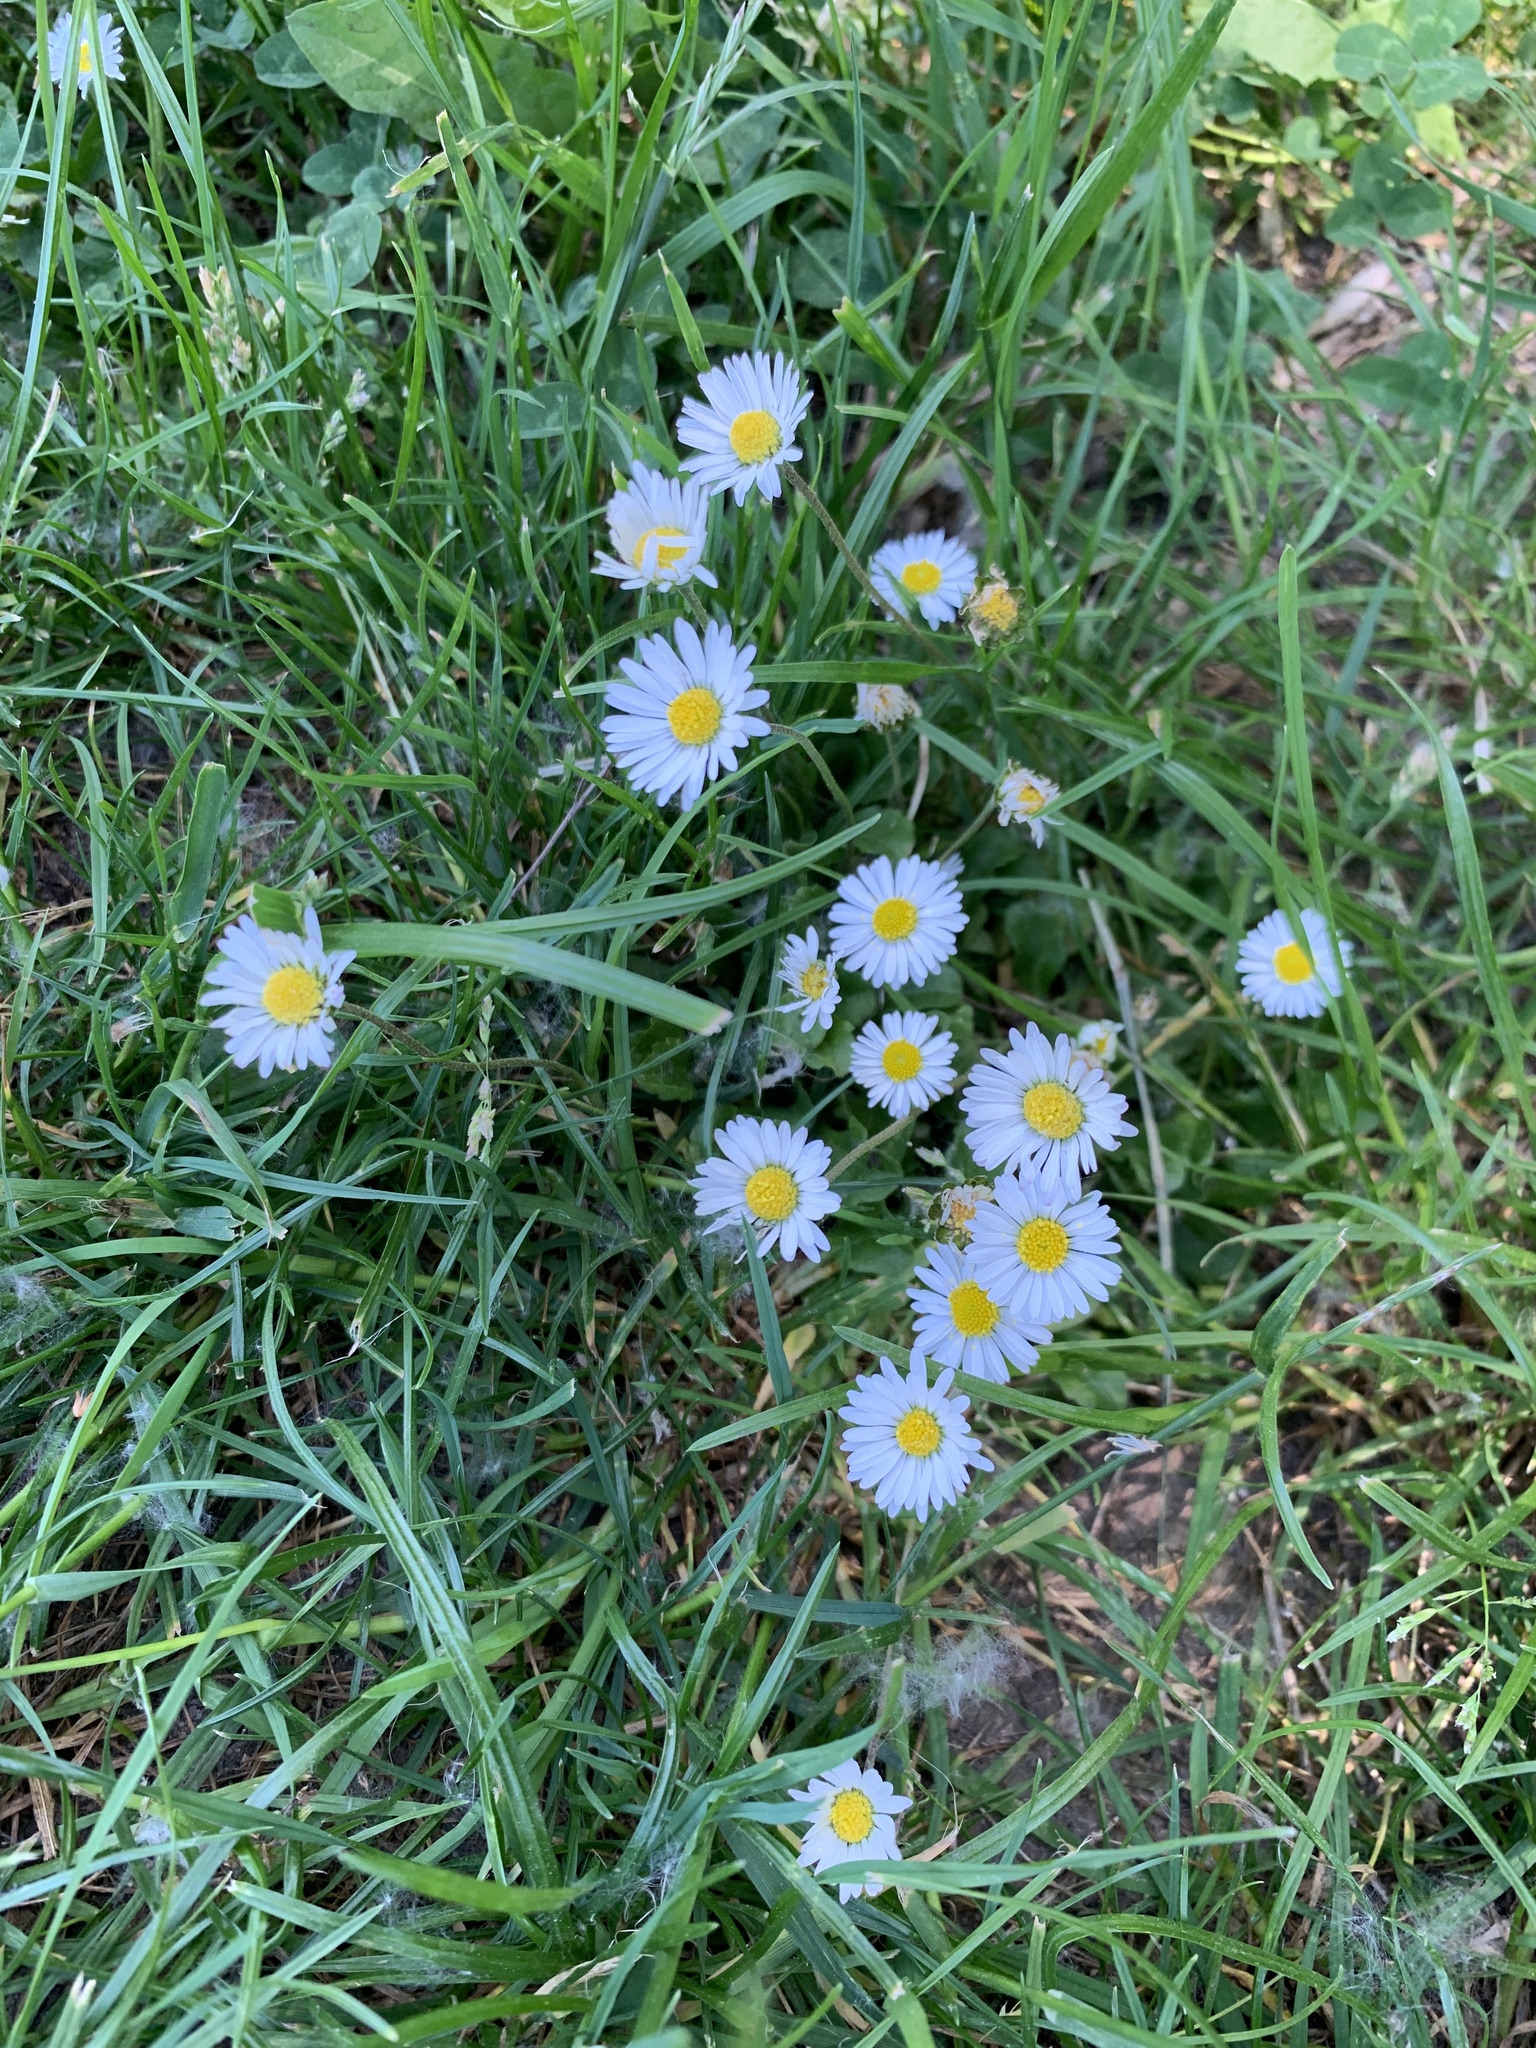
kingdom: Plantae
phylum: Tracheophyta
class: Magnoliopsida
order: Asterales
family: Asteraceae
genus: Bellis
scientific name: Bellis perennis
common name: Lawndaisy
